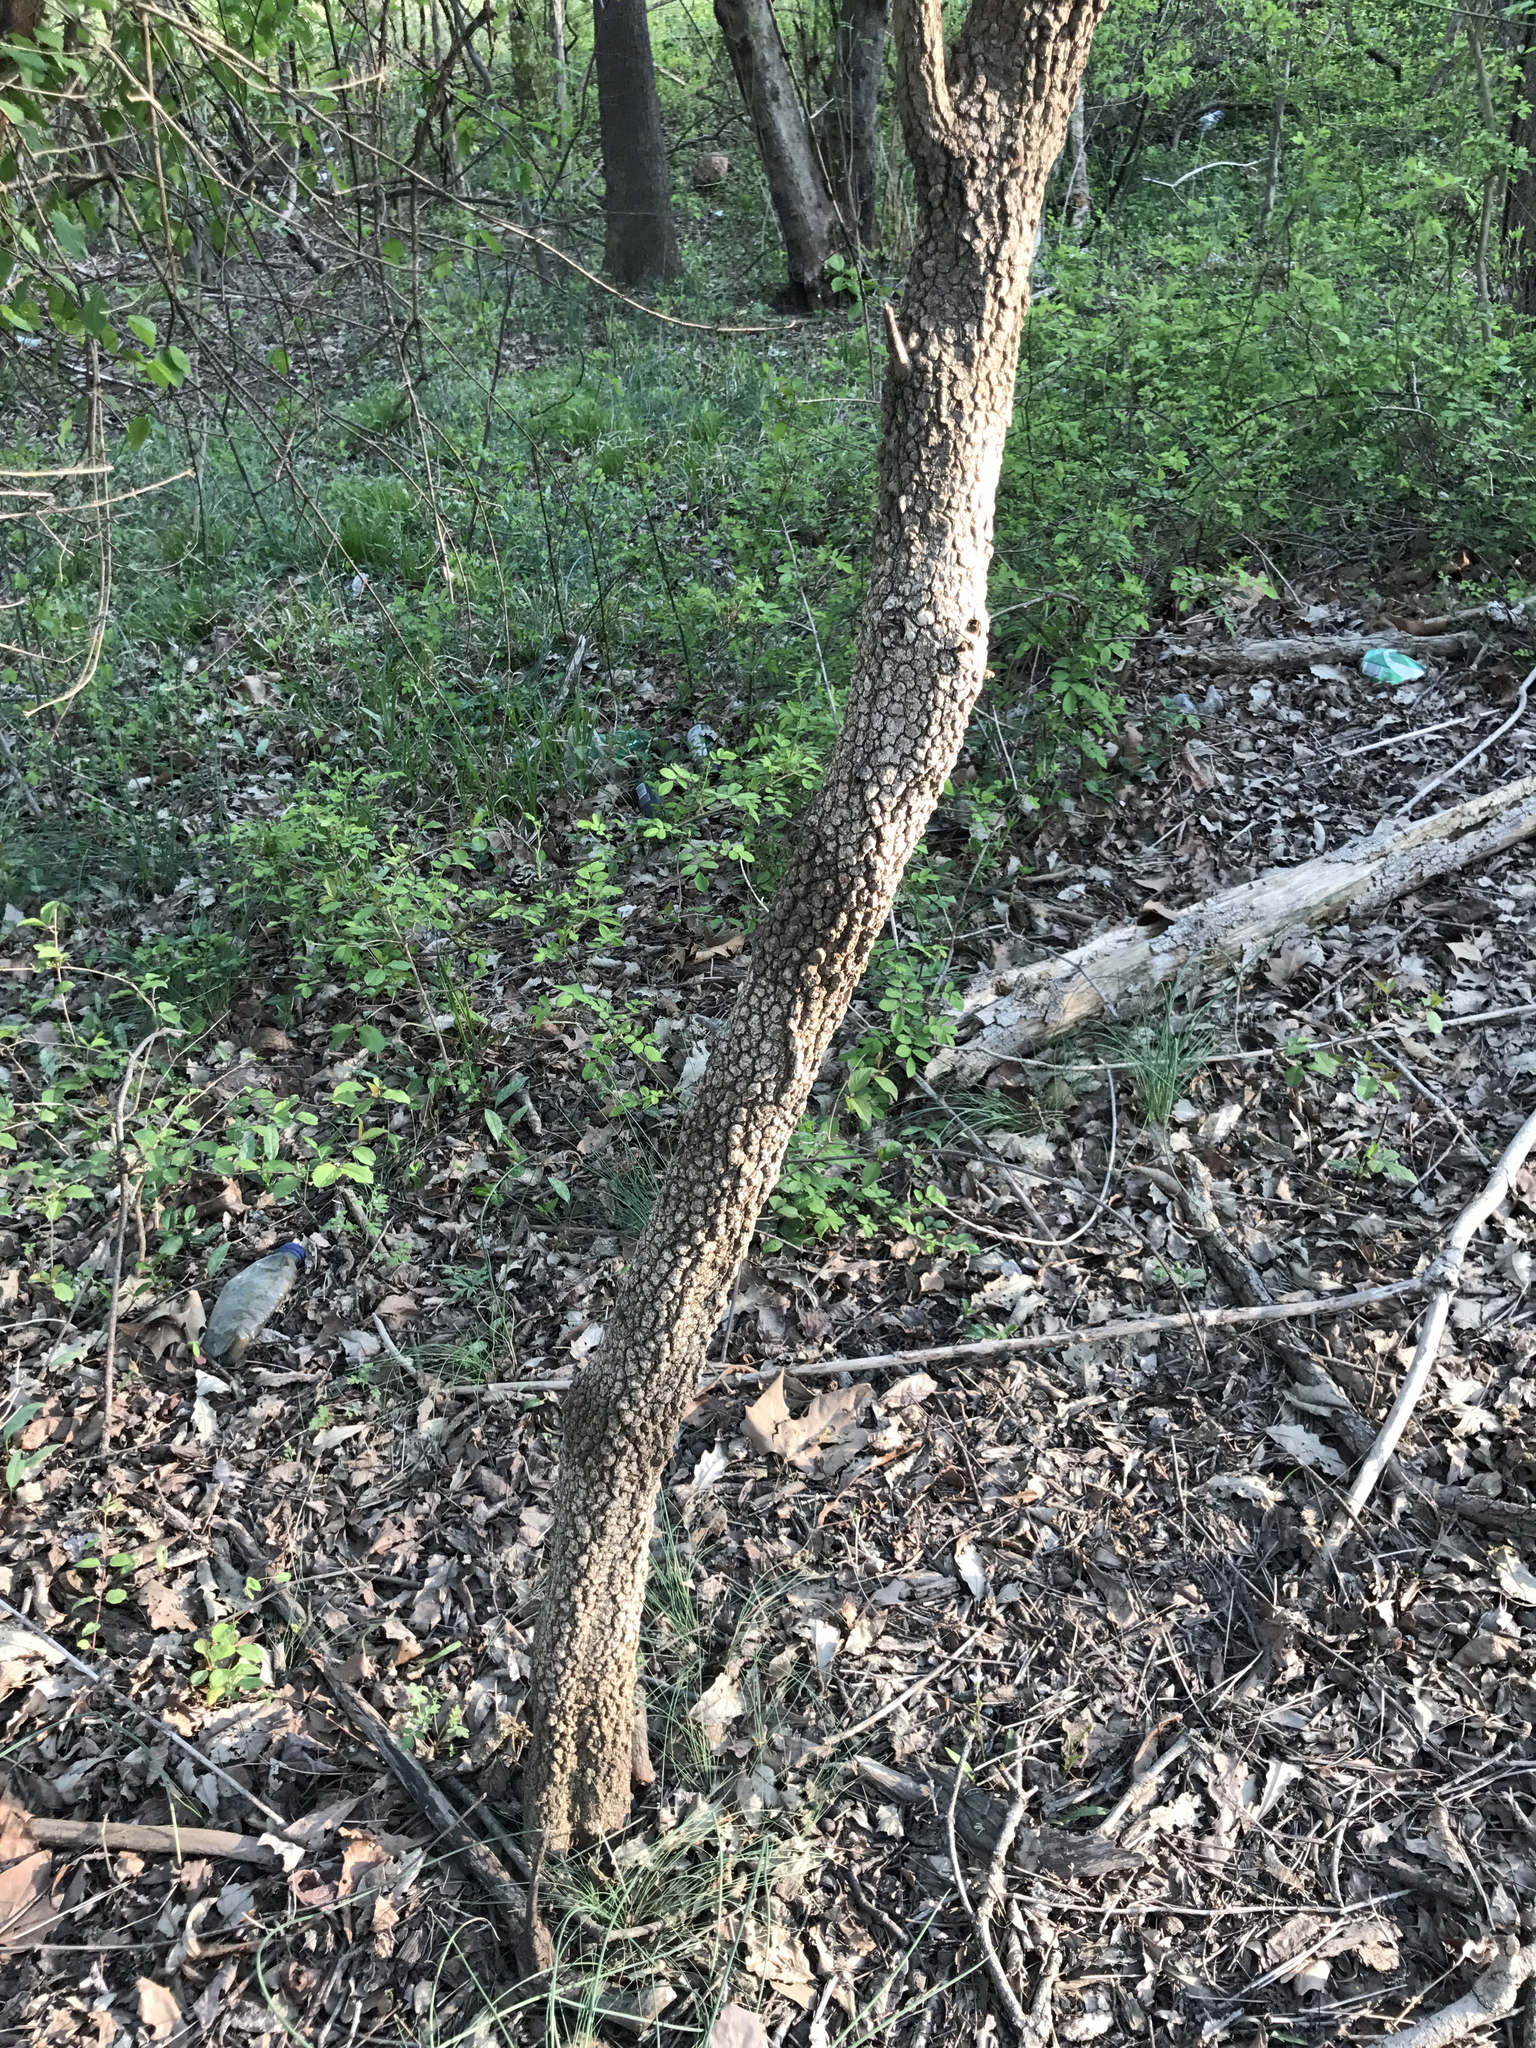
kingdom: Plantae
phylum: Tracheophyta
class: Magnoliopsida
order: Dipsacales
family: Viburnaceae
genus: Viburnum
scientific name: Viburnum prunifolium
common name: Black haw
